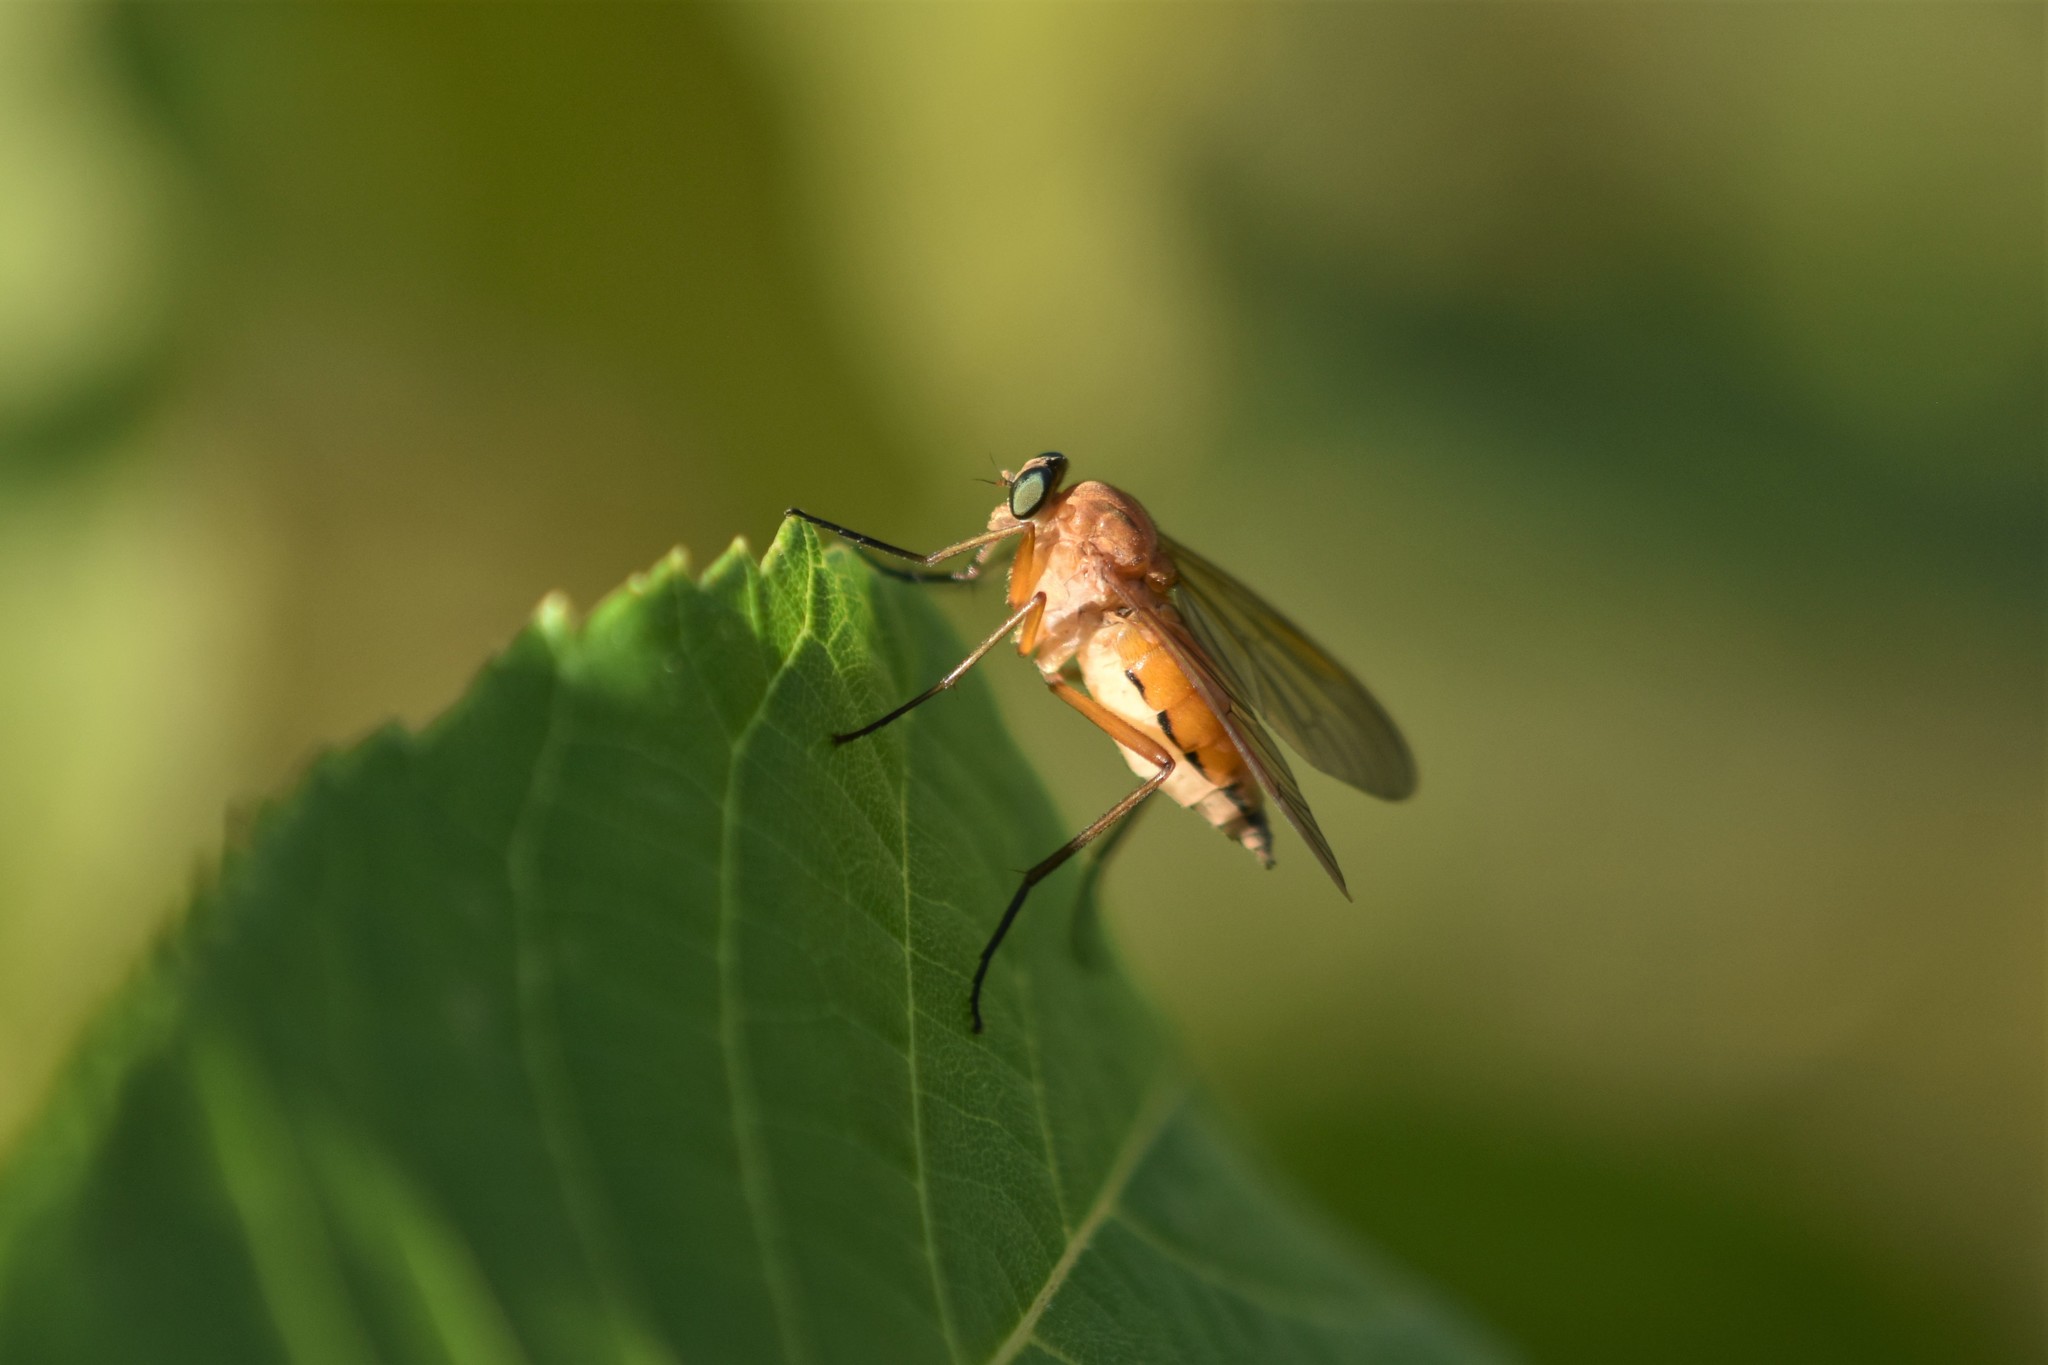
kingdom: Animalia
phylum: Arthropoda
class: Insecta
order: Diptera
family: Rhagionidae
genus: Rhagio
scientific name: Rhagio tringaria
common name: Marsh snipefly
